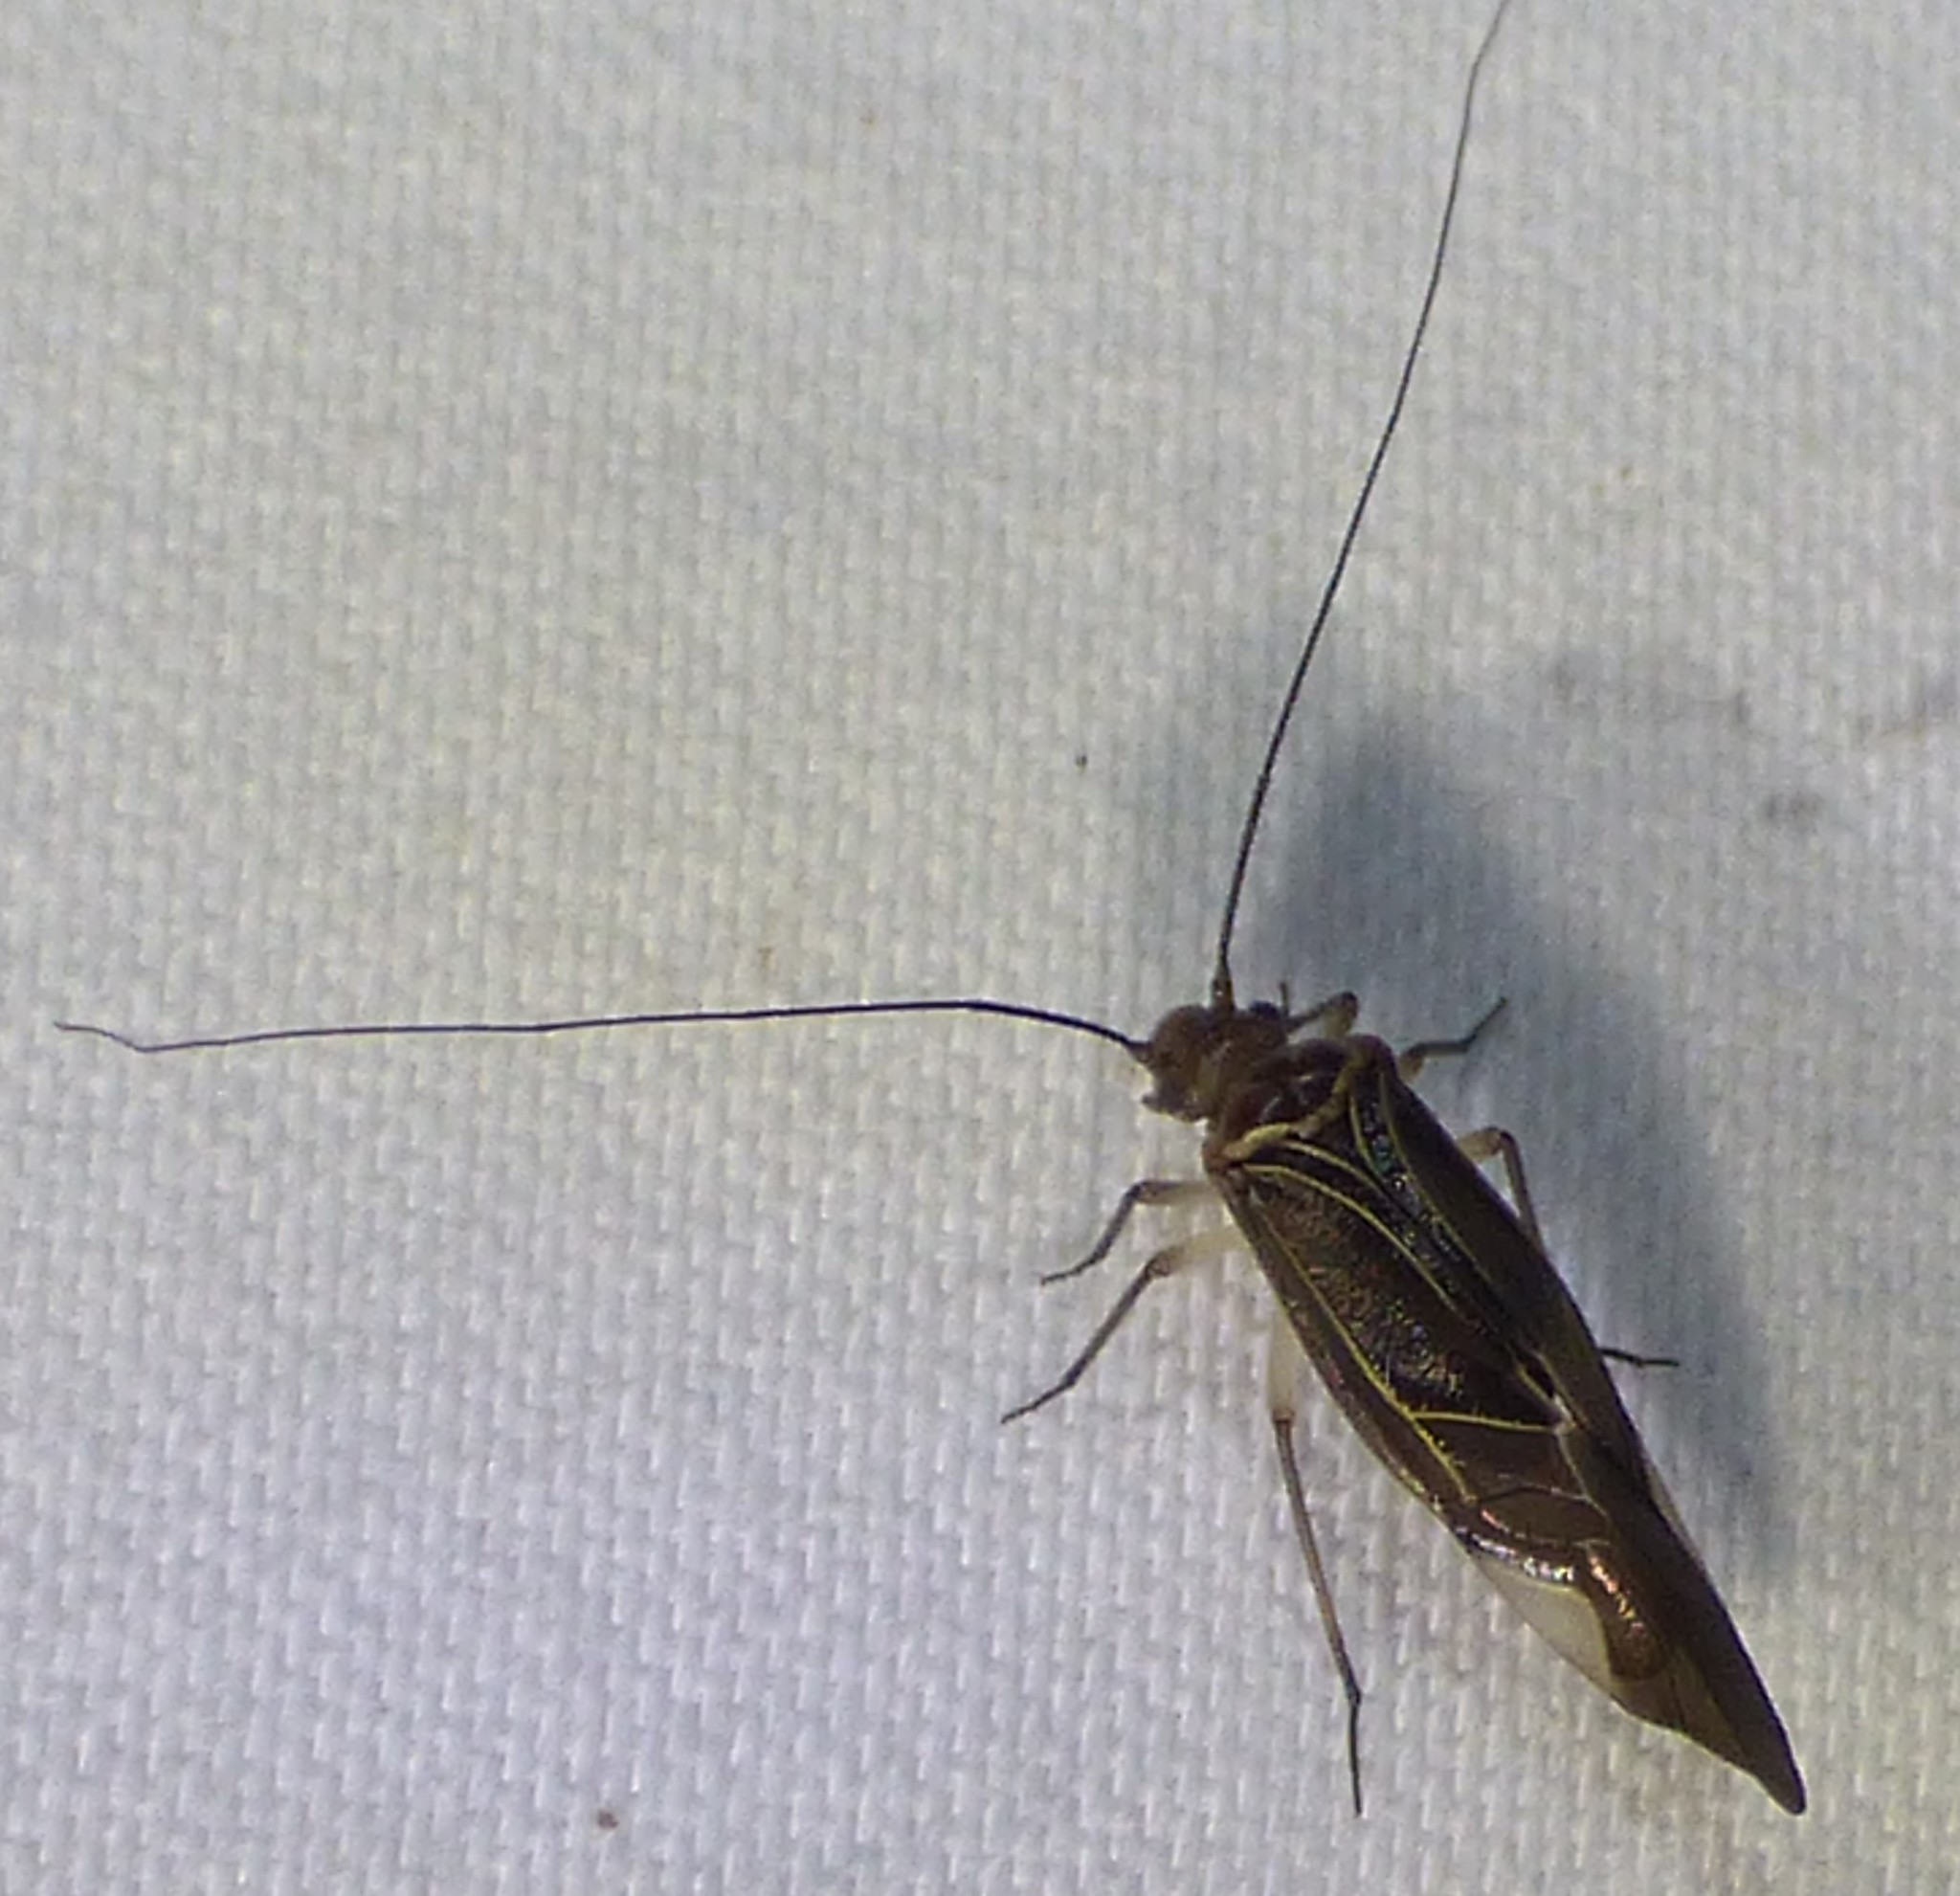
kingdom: Animalia
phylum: Arthropoda
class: Insecta
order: Psocodea
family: Psocidae
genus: Cerastipsocus
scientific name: Cerastipsocus venosus
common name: Tree cattle
